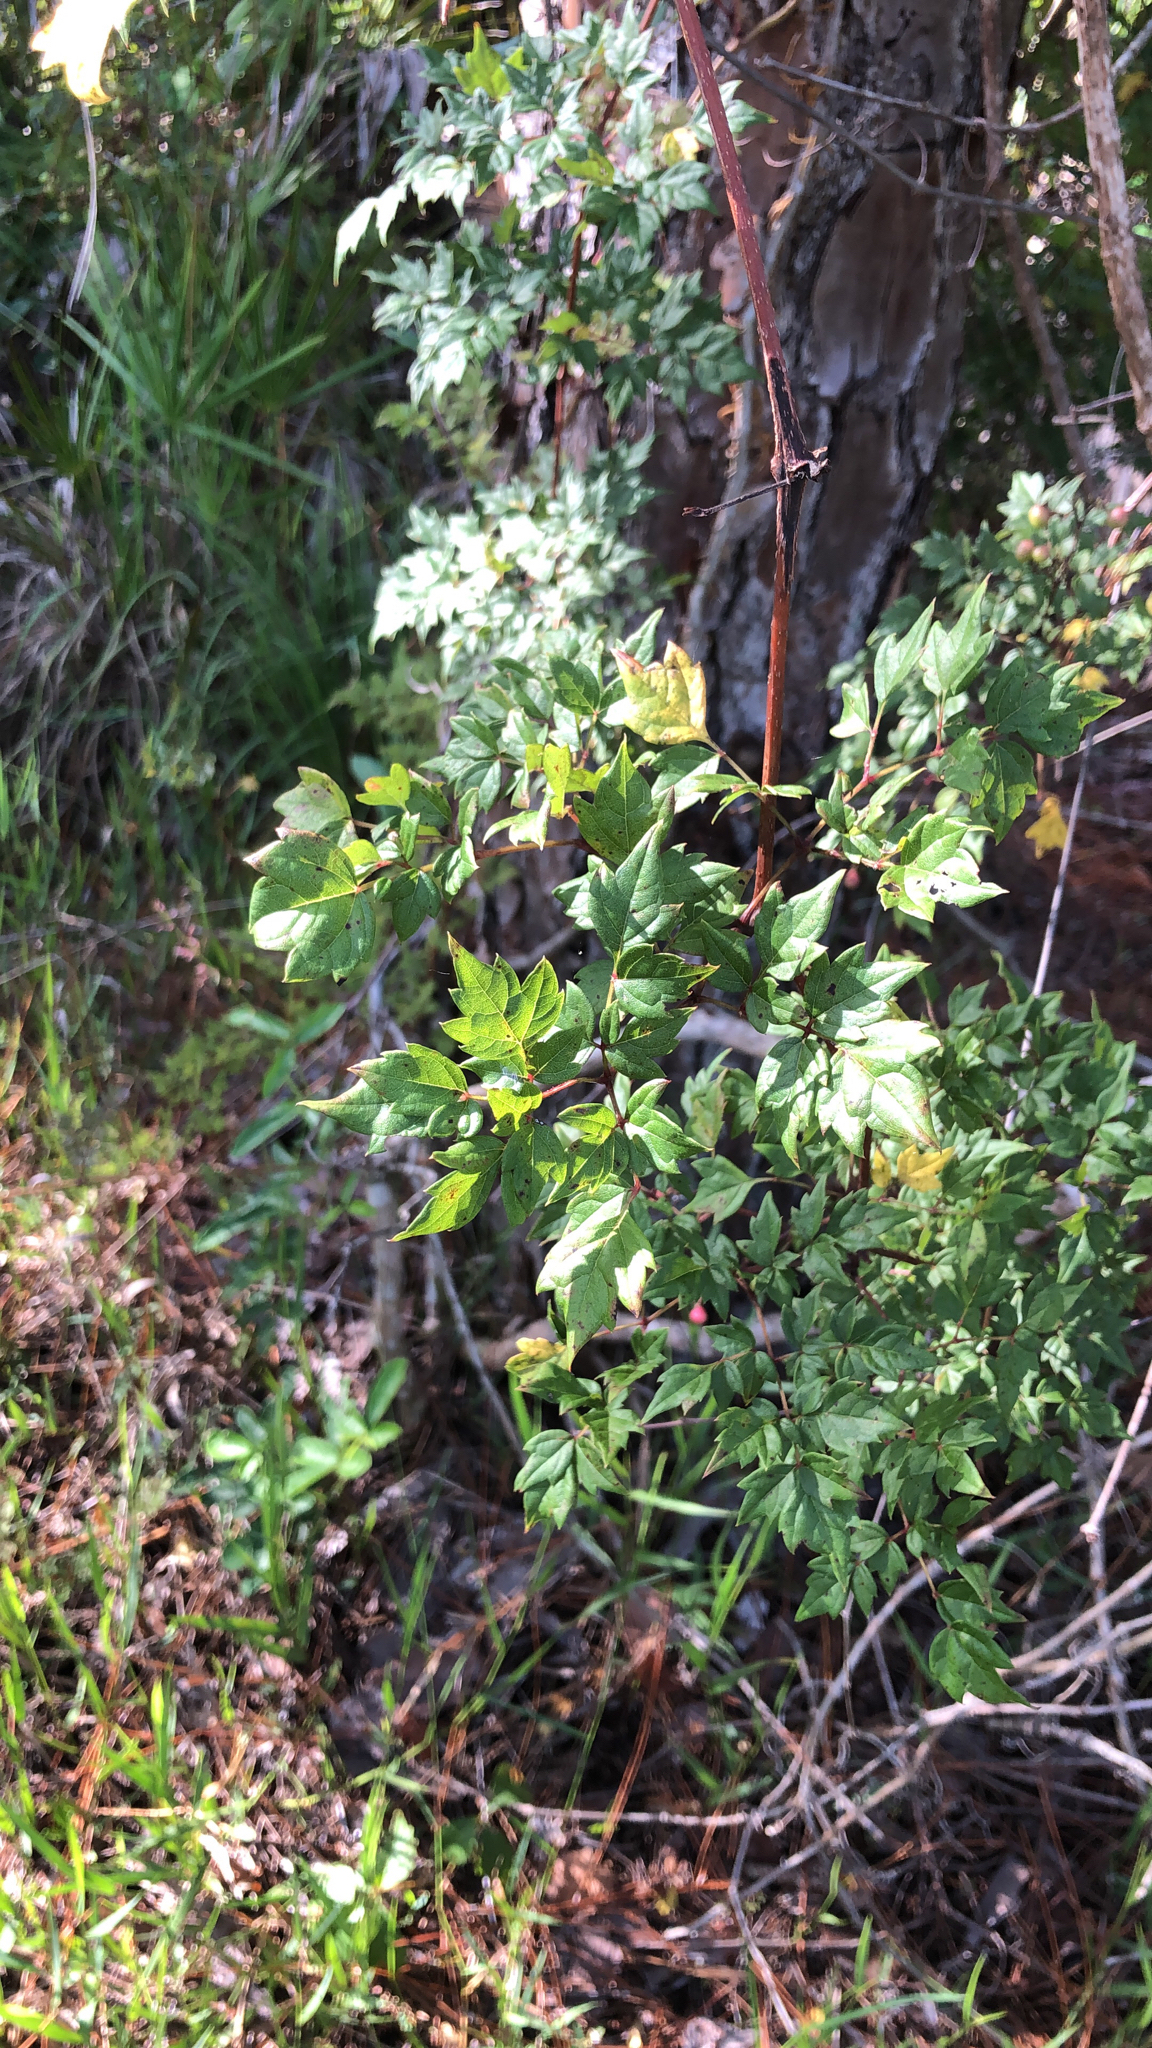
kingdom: Plantae
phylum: Tracheophyta
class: Magnoliopsida
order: Vitales
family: Vitaceae
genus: Nekemias
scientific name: Nekemias arborea
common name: Peppervine
